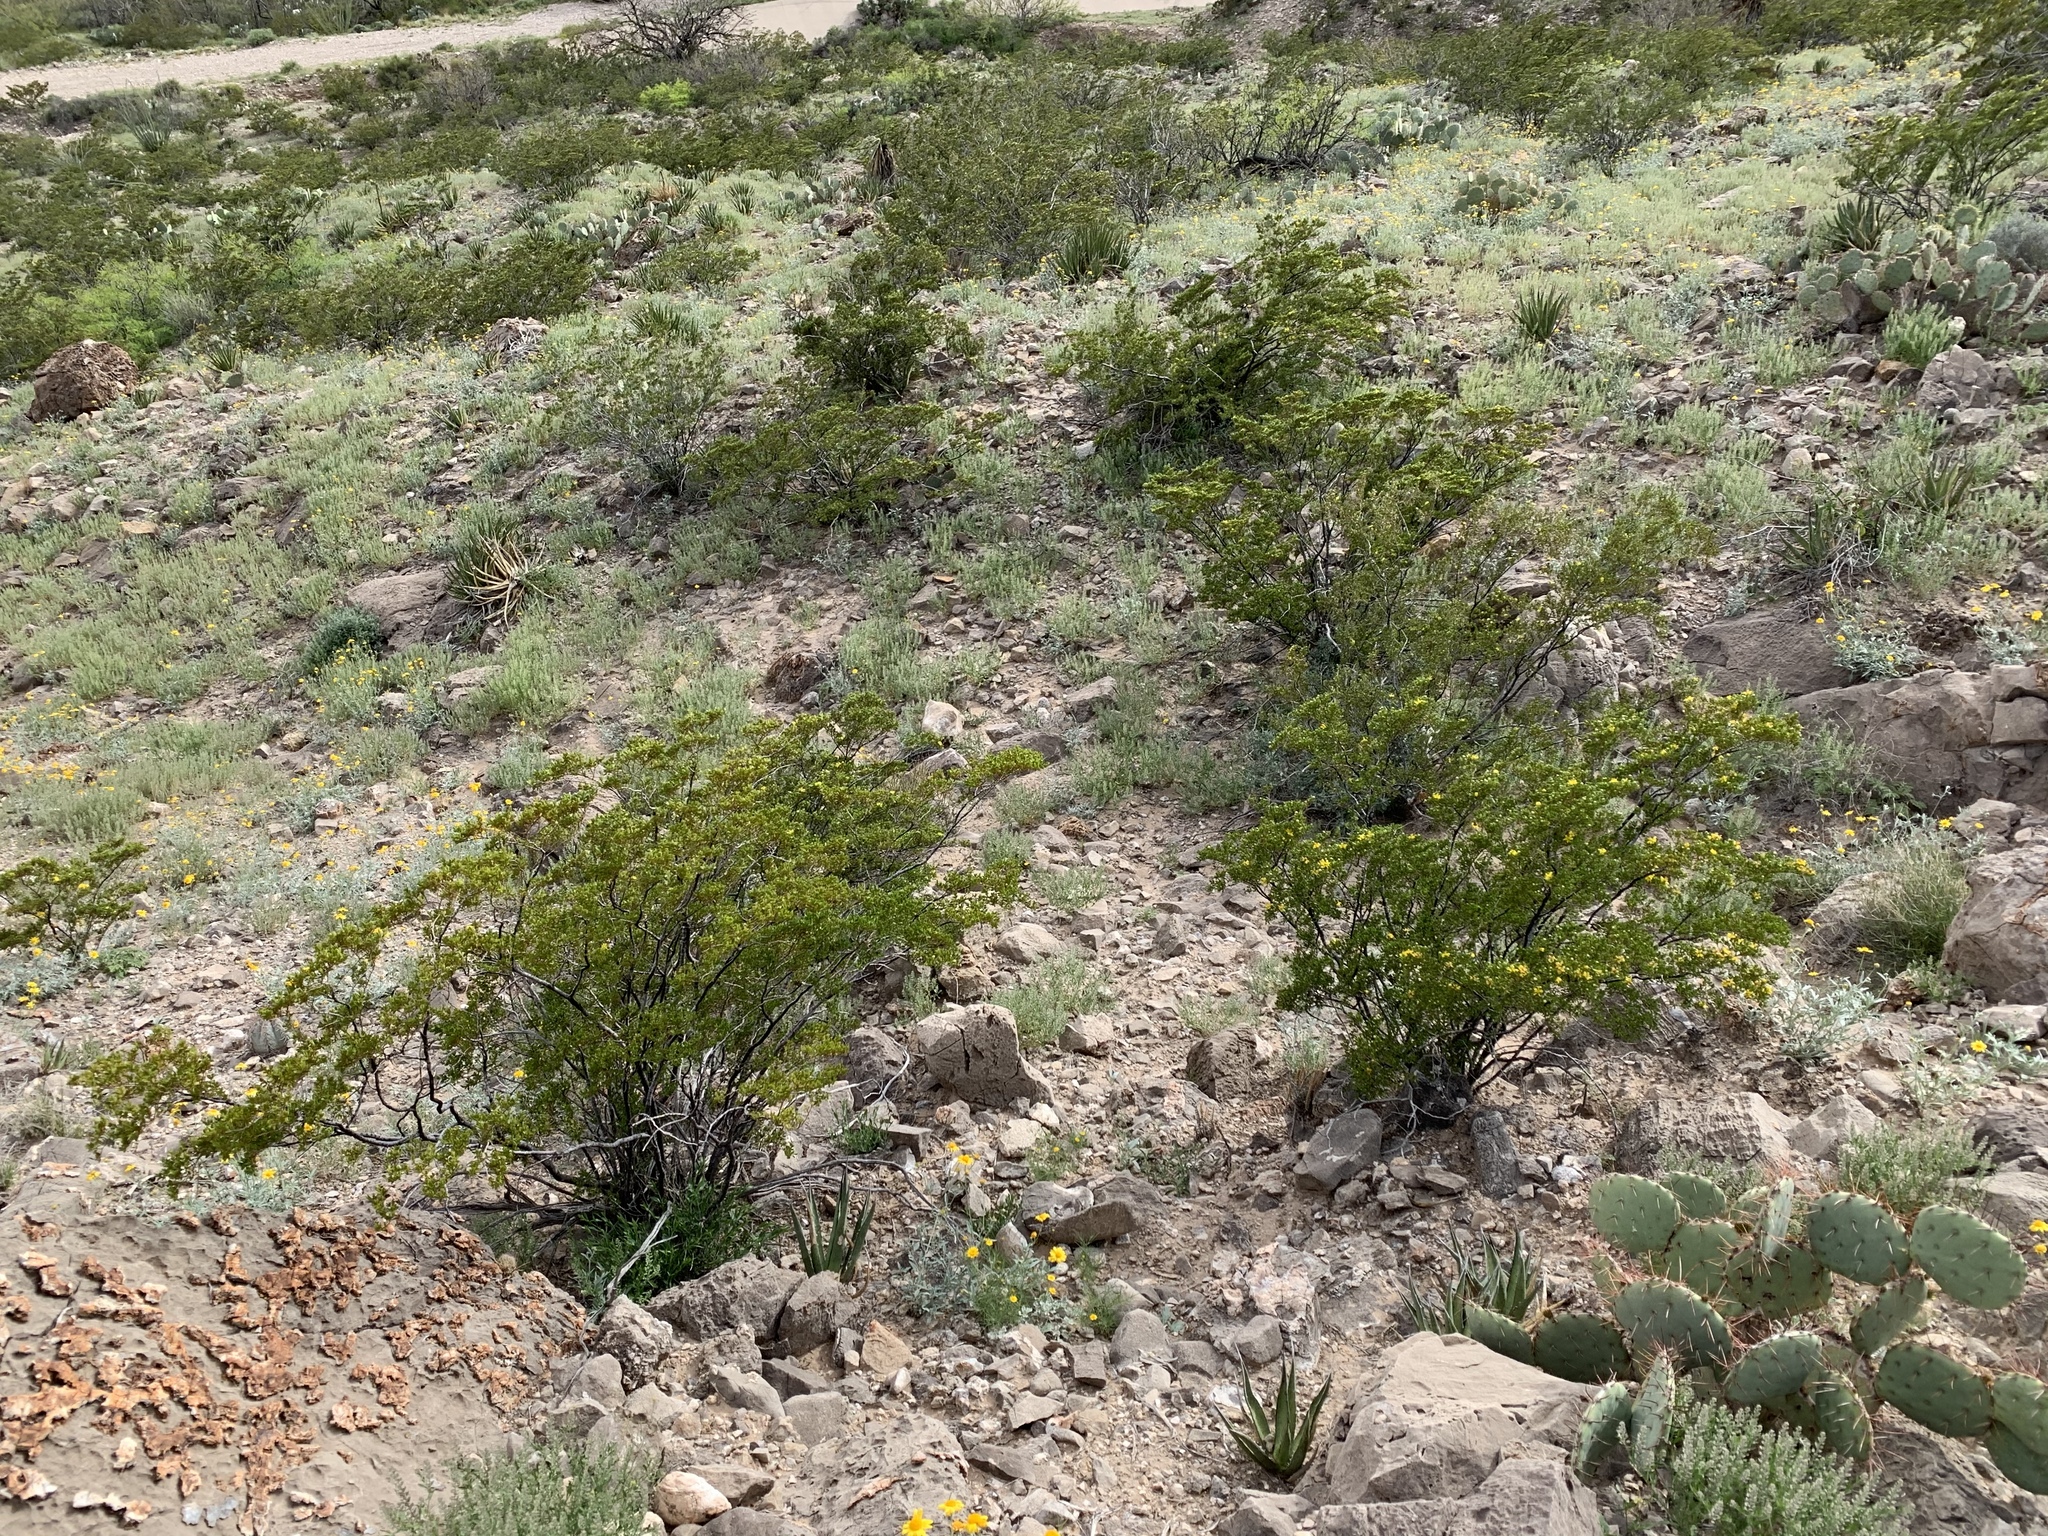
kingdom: Plantae
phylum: Tracheophyta
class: Magnoliopsida
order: Zygophyllales
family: Zygophyllaceae
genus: Larrea
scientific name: Larrea tridentata
